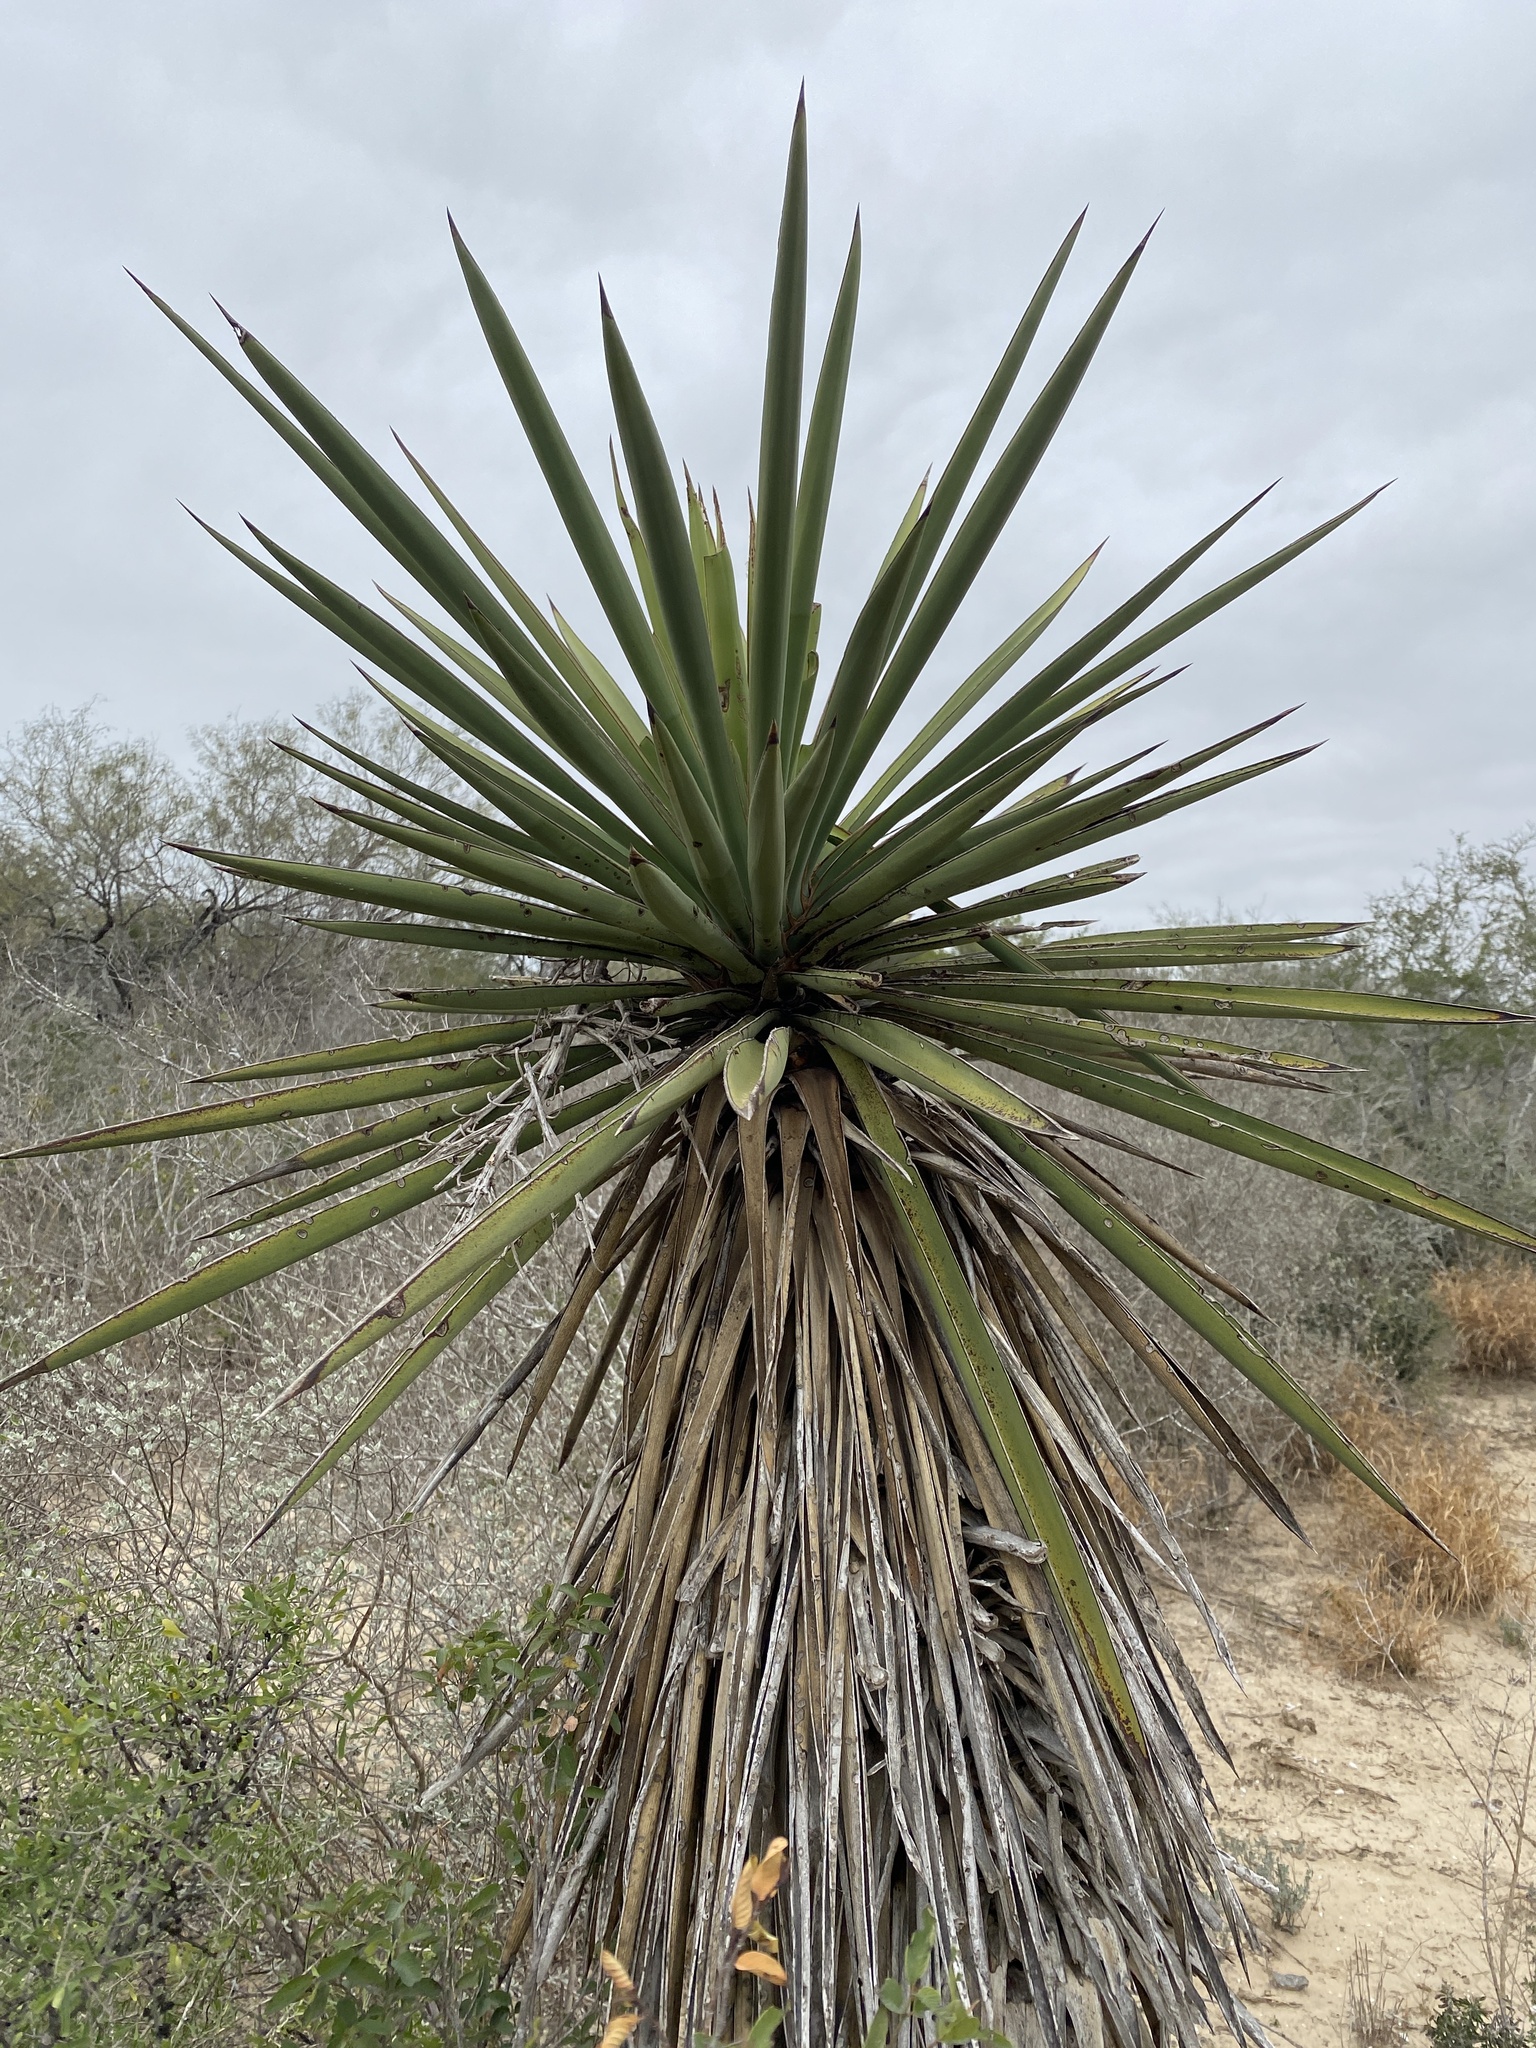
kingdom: Plantae
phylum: Tracheophyta
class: Liliopsida
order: Asparagales
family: Asparagaceae
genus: Yucca
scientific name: Yucca treculiana
